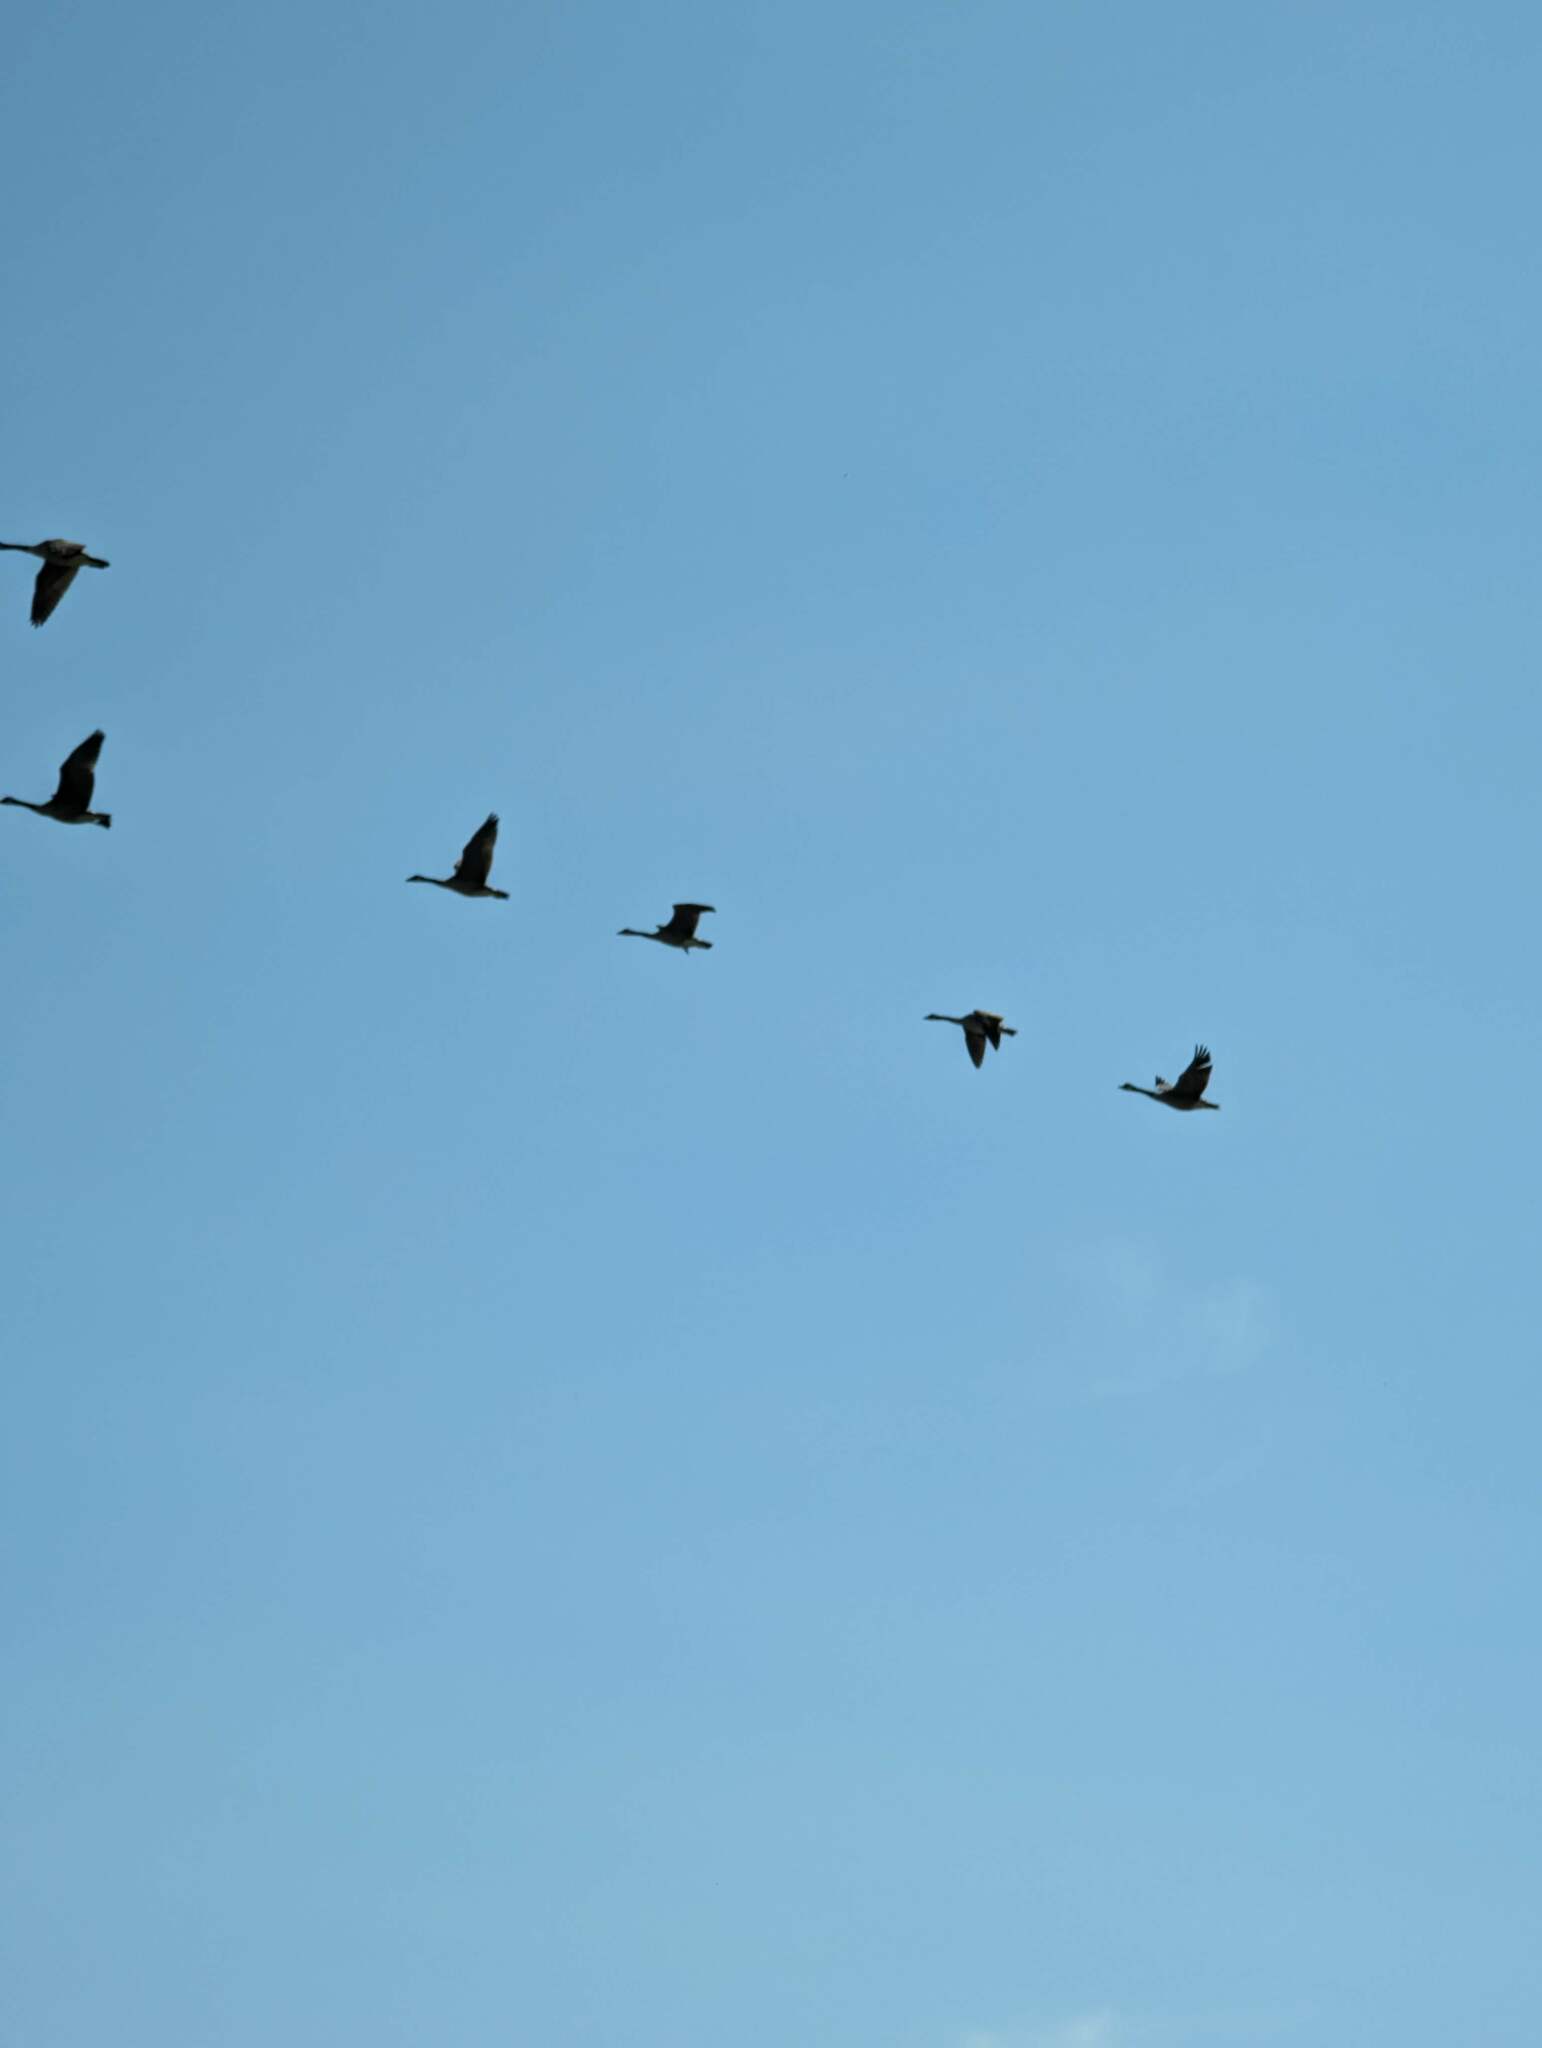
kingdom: Animalia
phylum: Chordata
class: Aves
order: Anseriformes
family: Anatidae
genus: Branta
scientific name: Branta canadensis
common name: Canada goose
